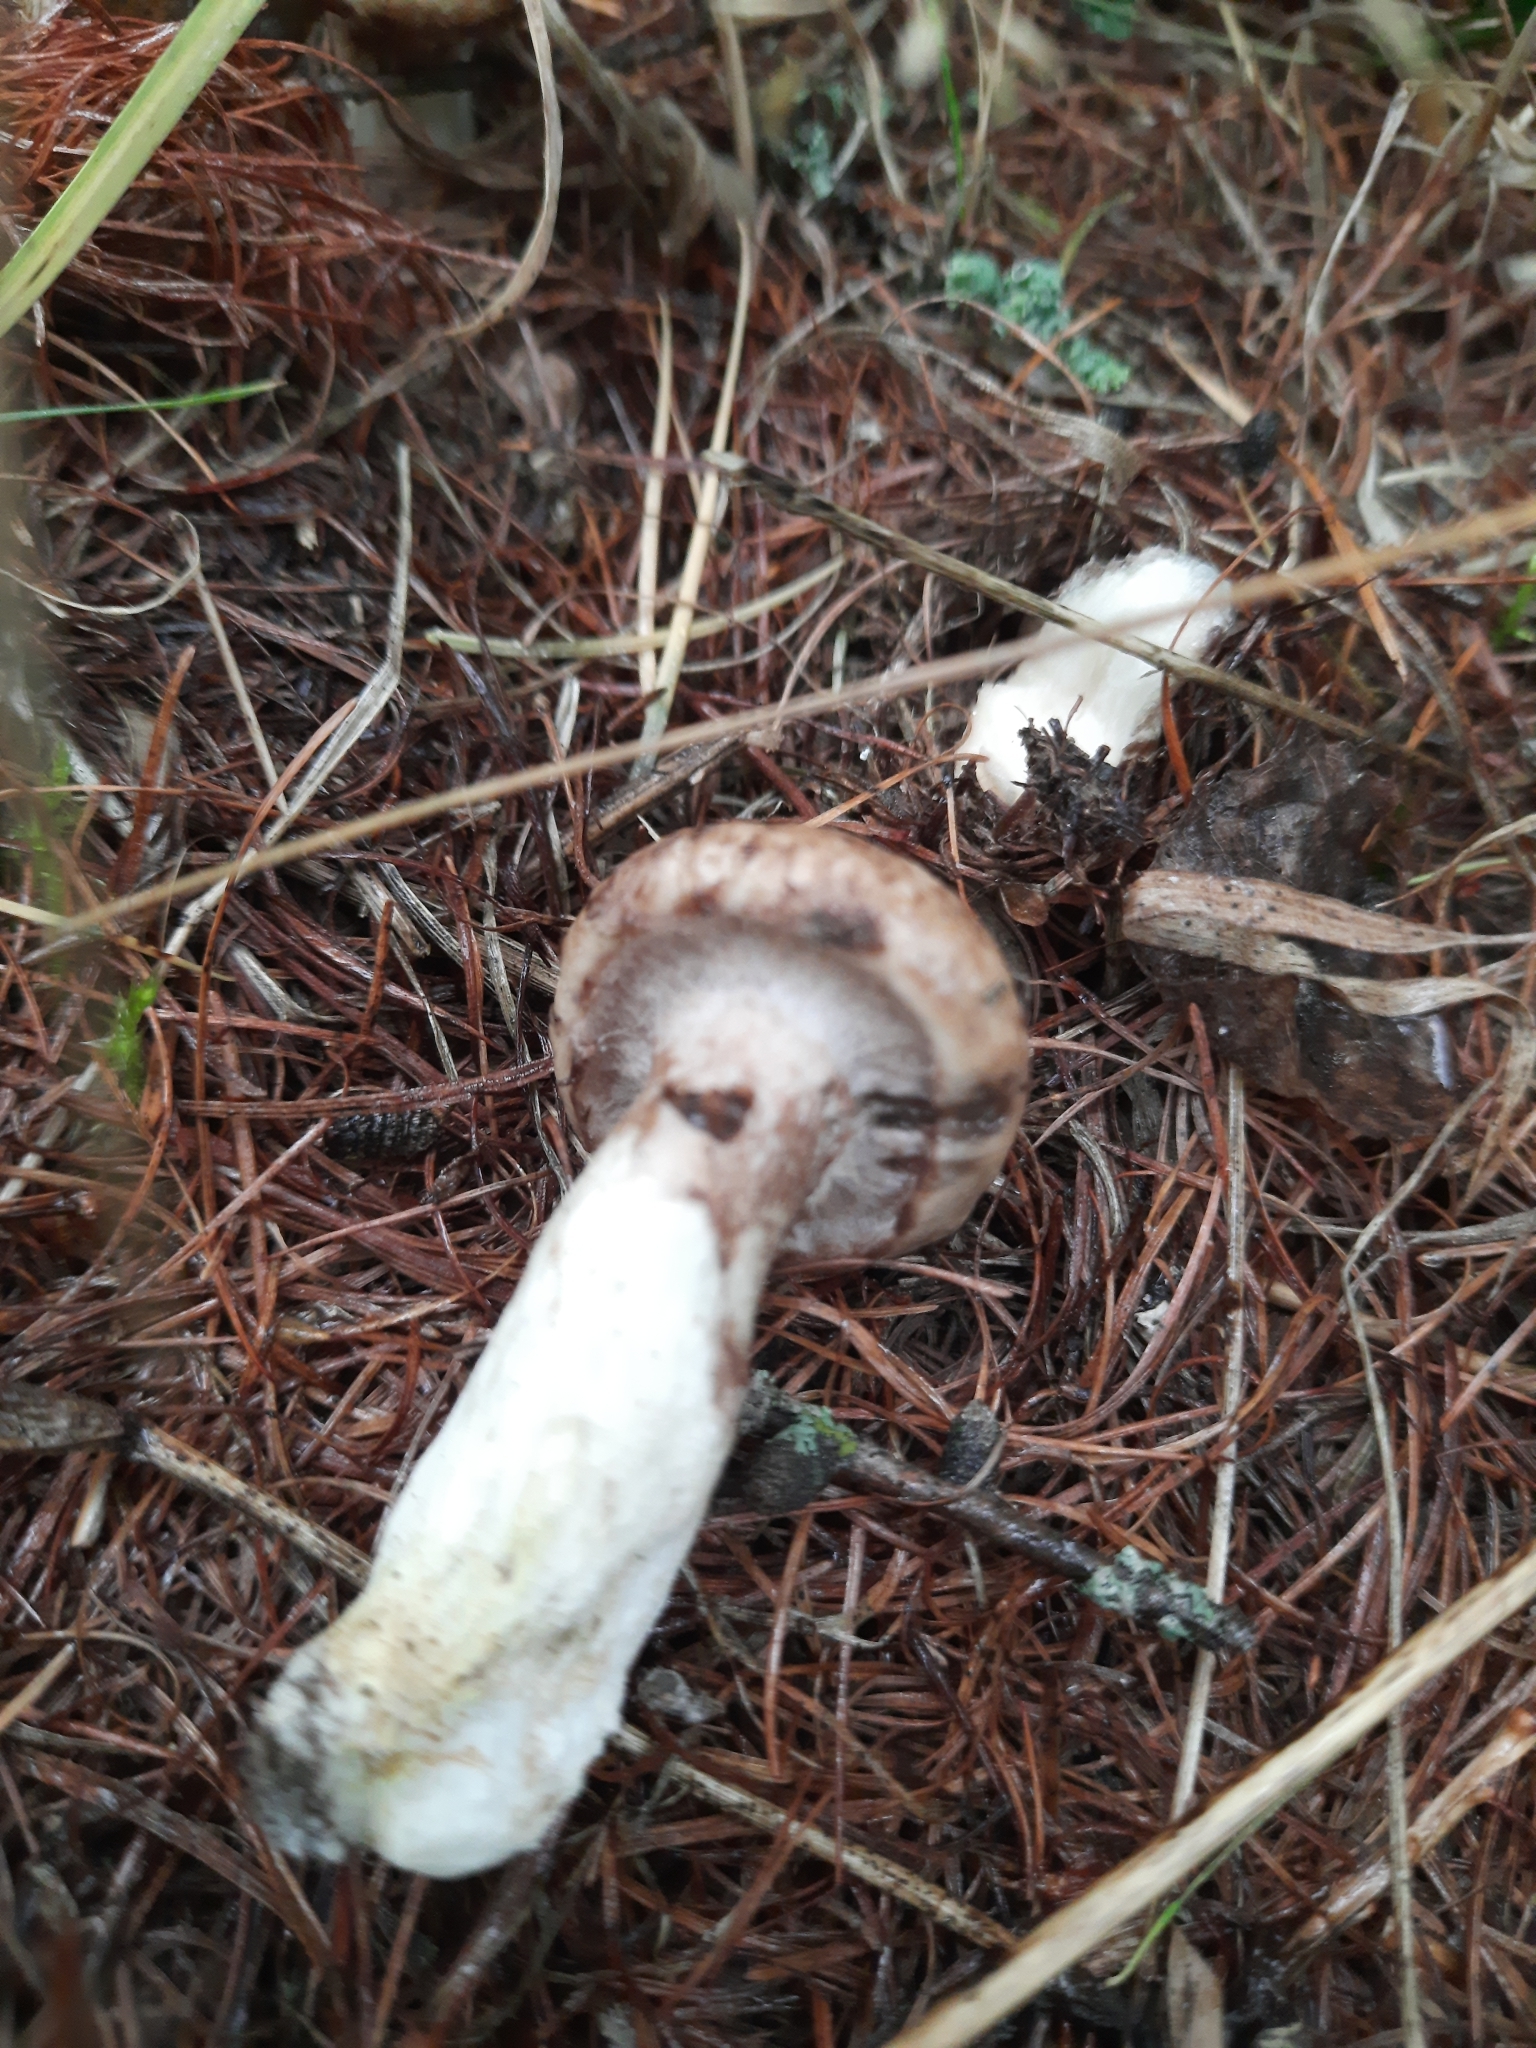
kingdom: Fungi
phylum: Basidiomycota
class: Agaricomycetes
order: Boletales
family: Suillaceae
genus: Suillus
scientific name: Suillus viscidus
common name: Sticky bolete
